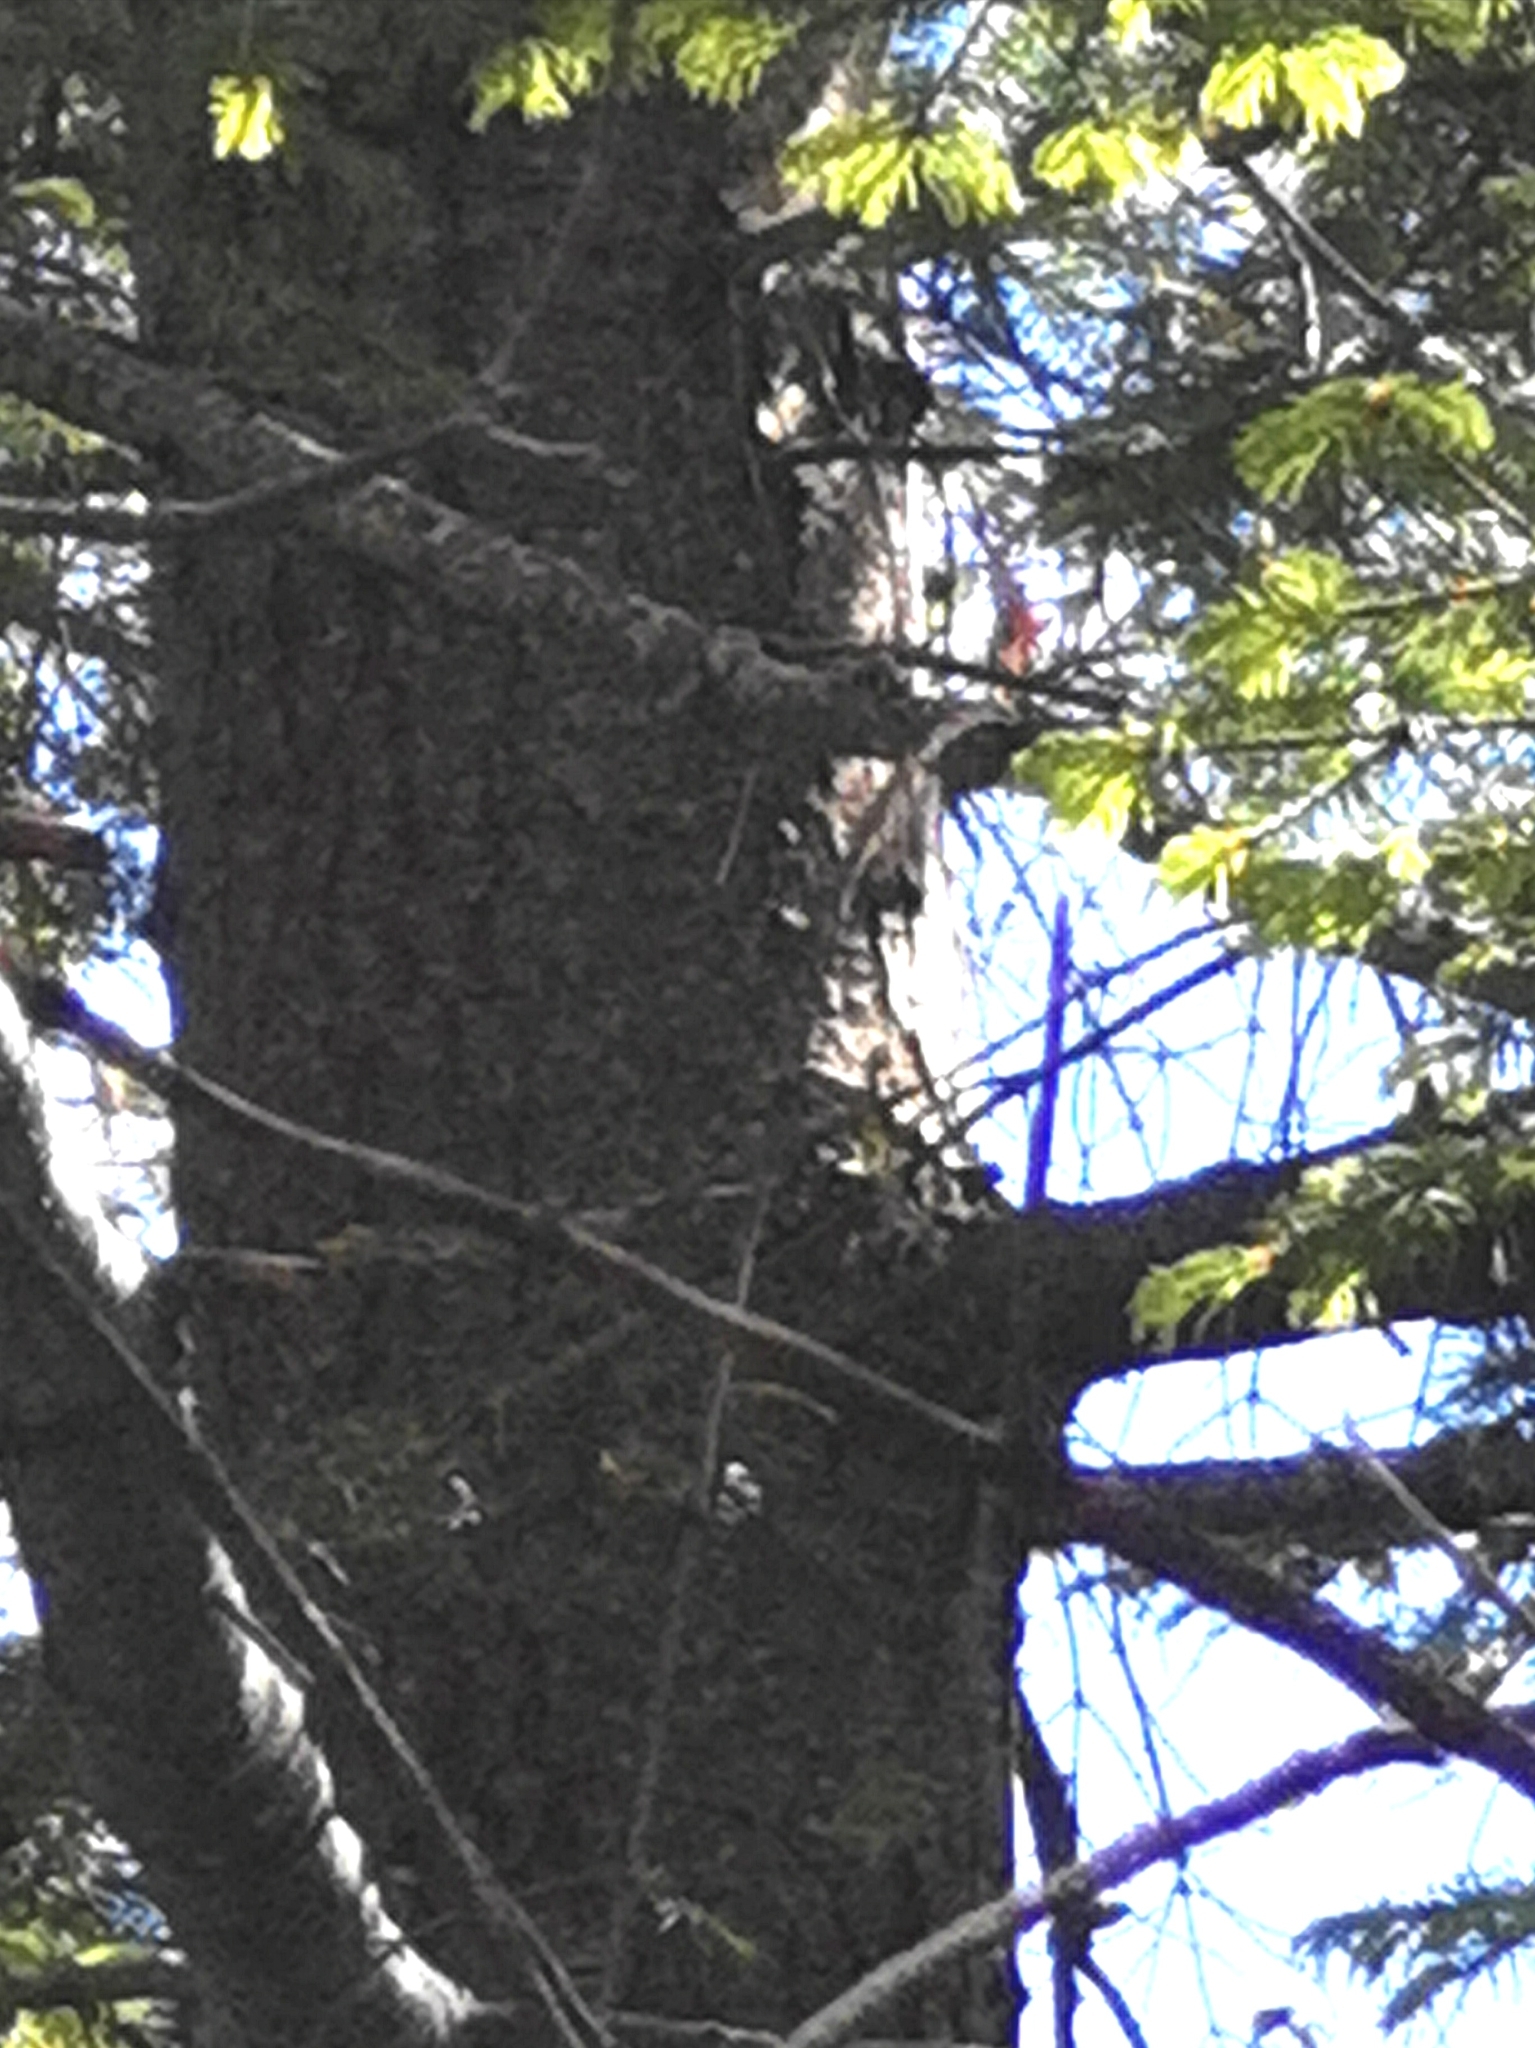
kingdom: Plantae
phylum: Tracheophyta
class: Pinopsida
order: Pinales
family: Pinaceae
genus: Abies
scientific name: Abies durangensis
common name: Durango fir
